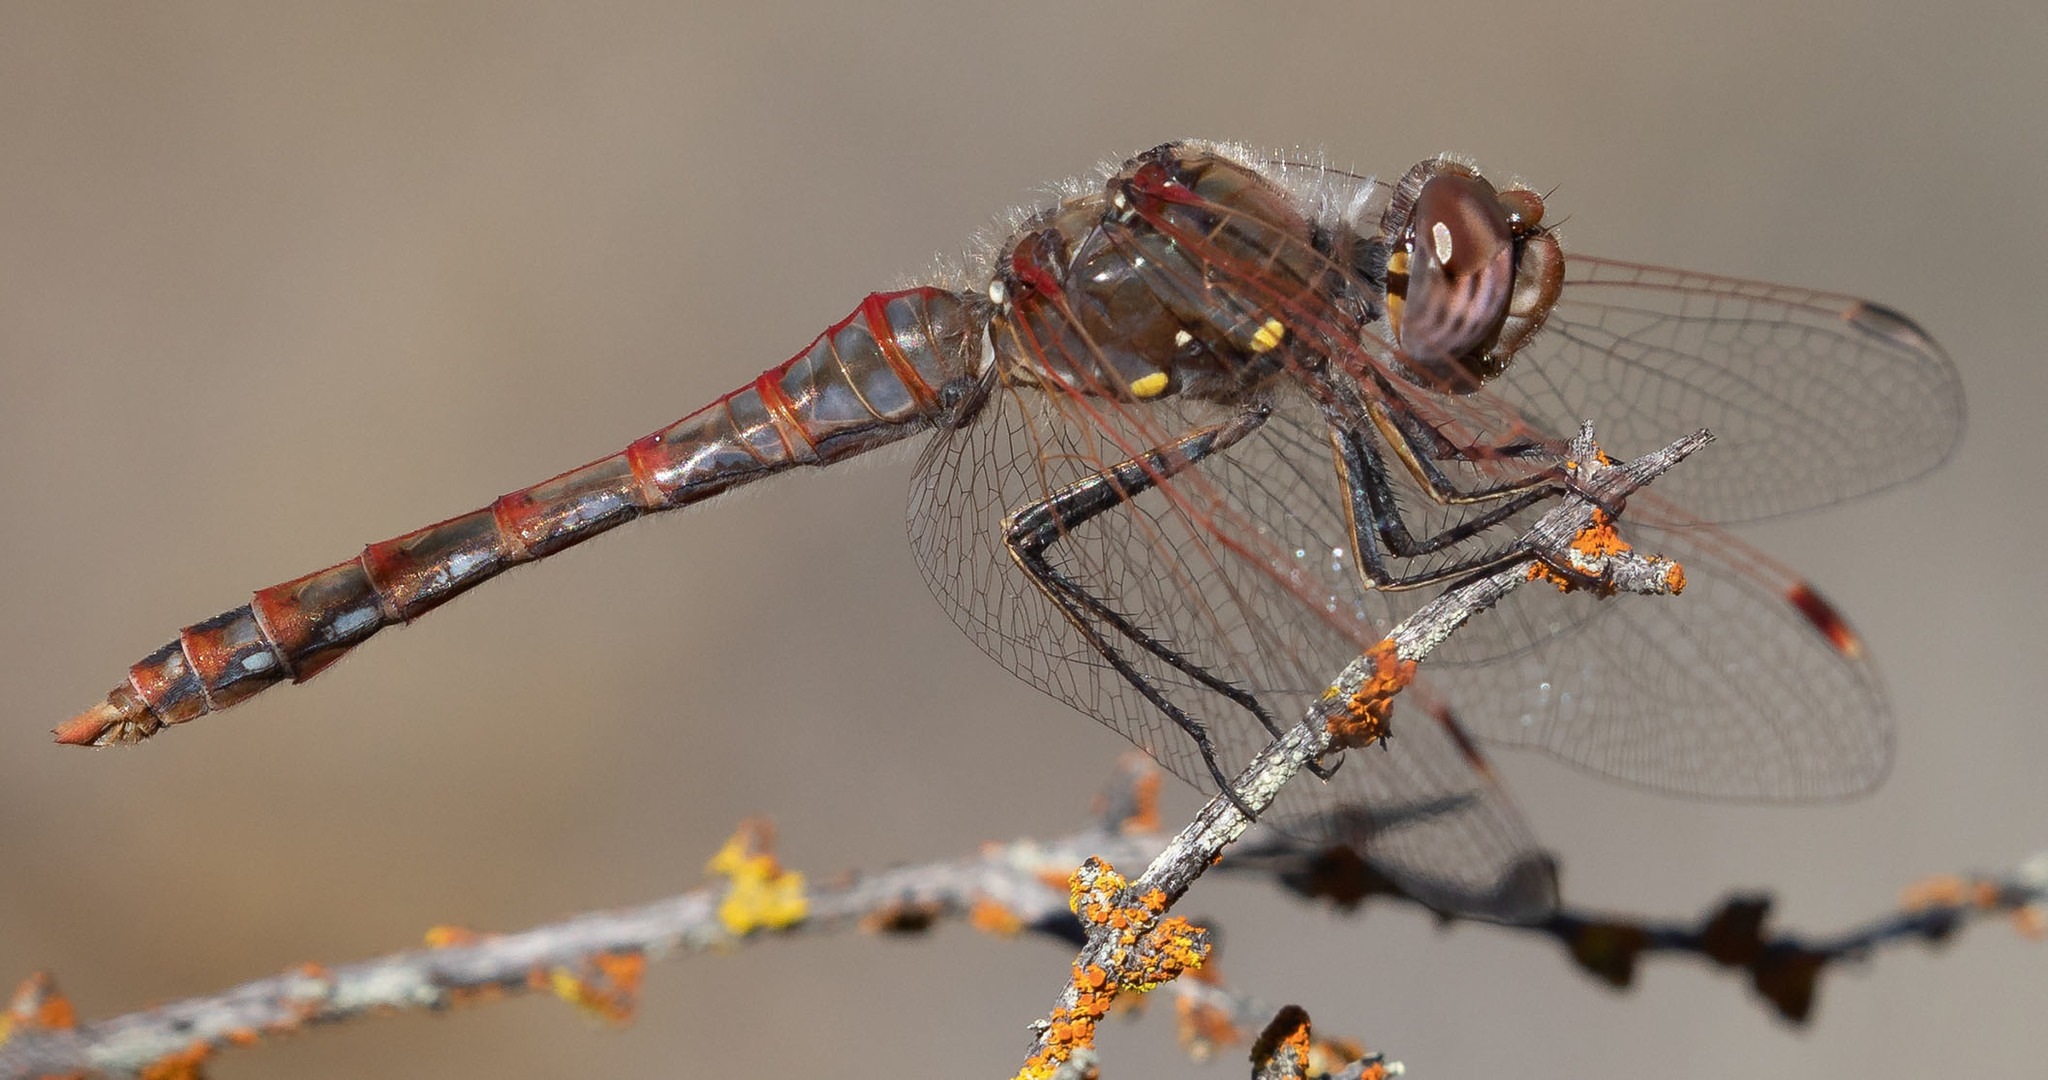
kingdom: Animalia
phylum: Arthropoda
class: Insecta
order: Odonata
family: Libellulidae
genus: Sympetrum
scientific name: Sympetrum corruptum
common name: Variegated meadowhawk
